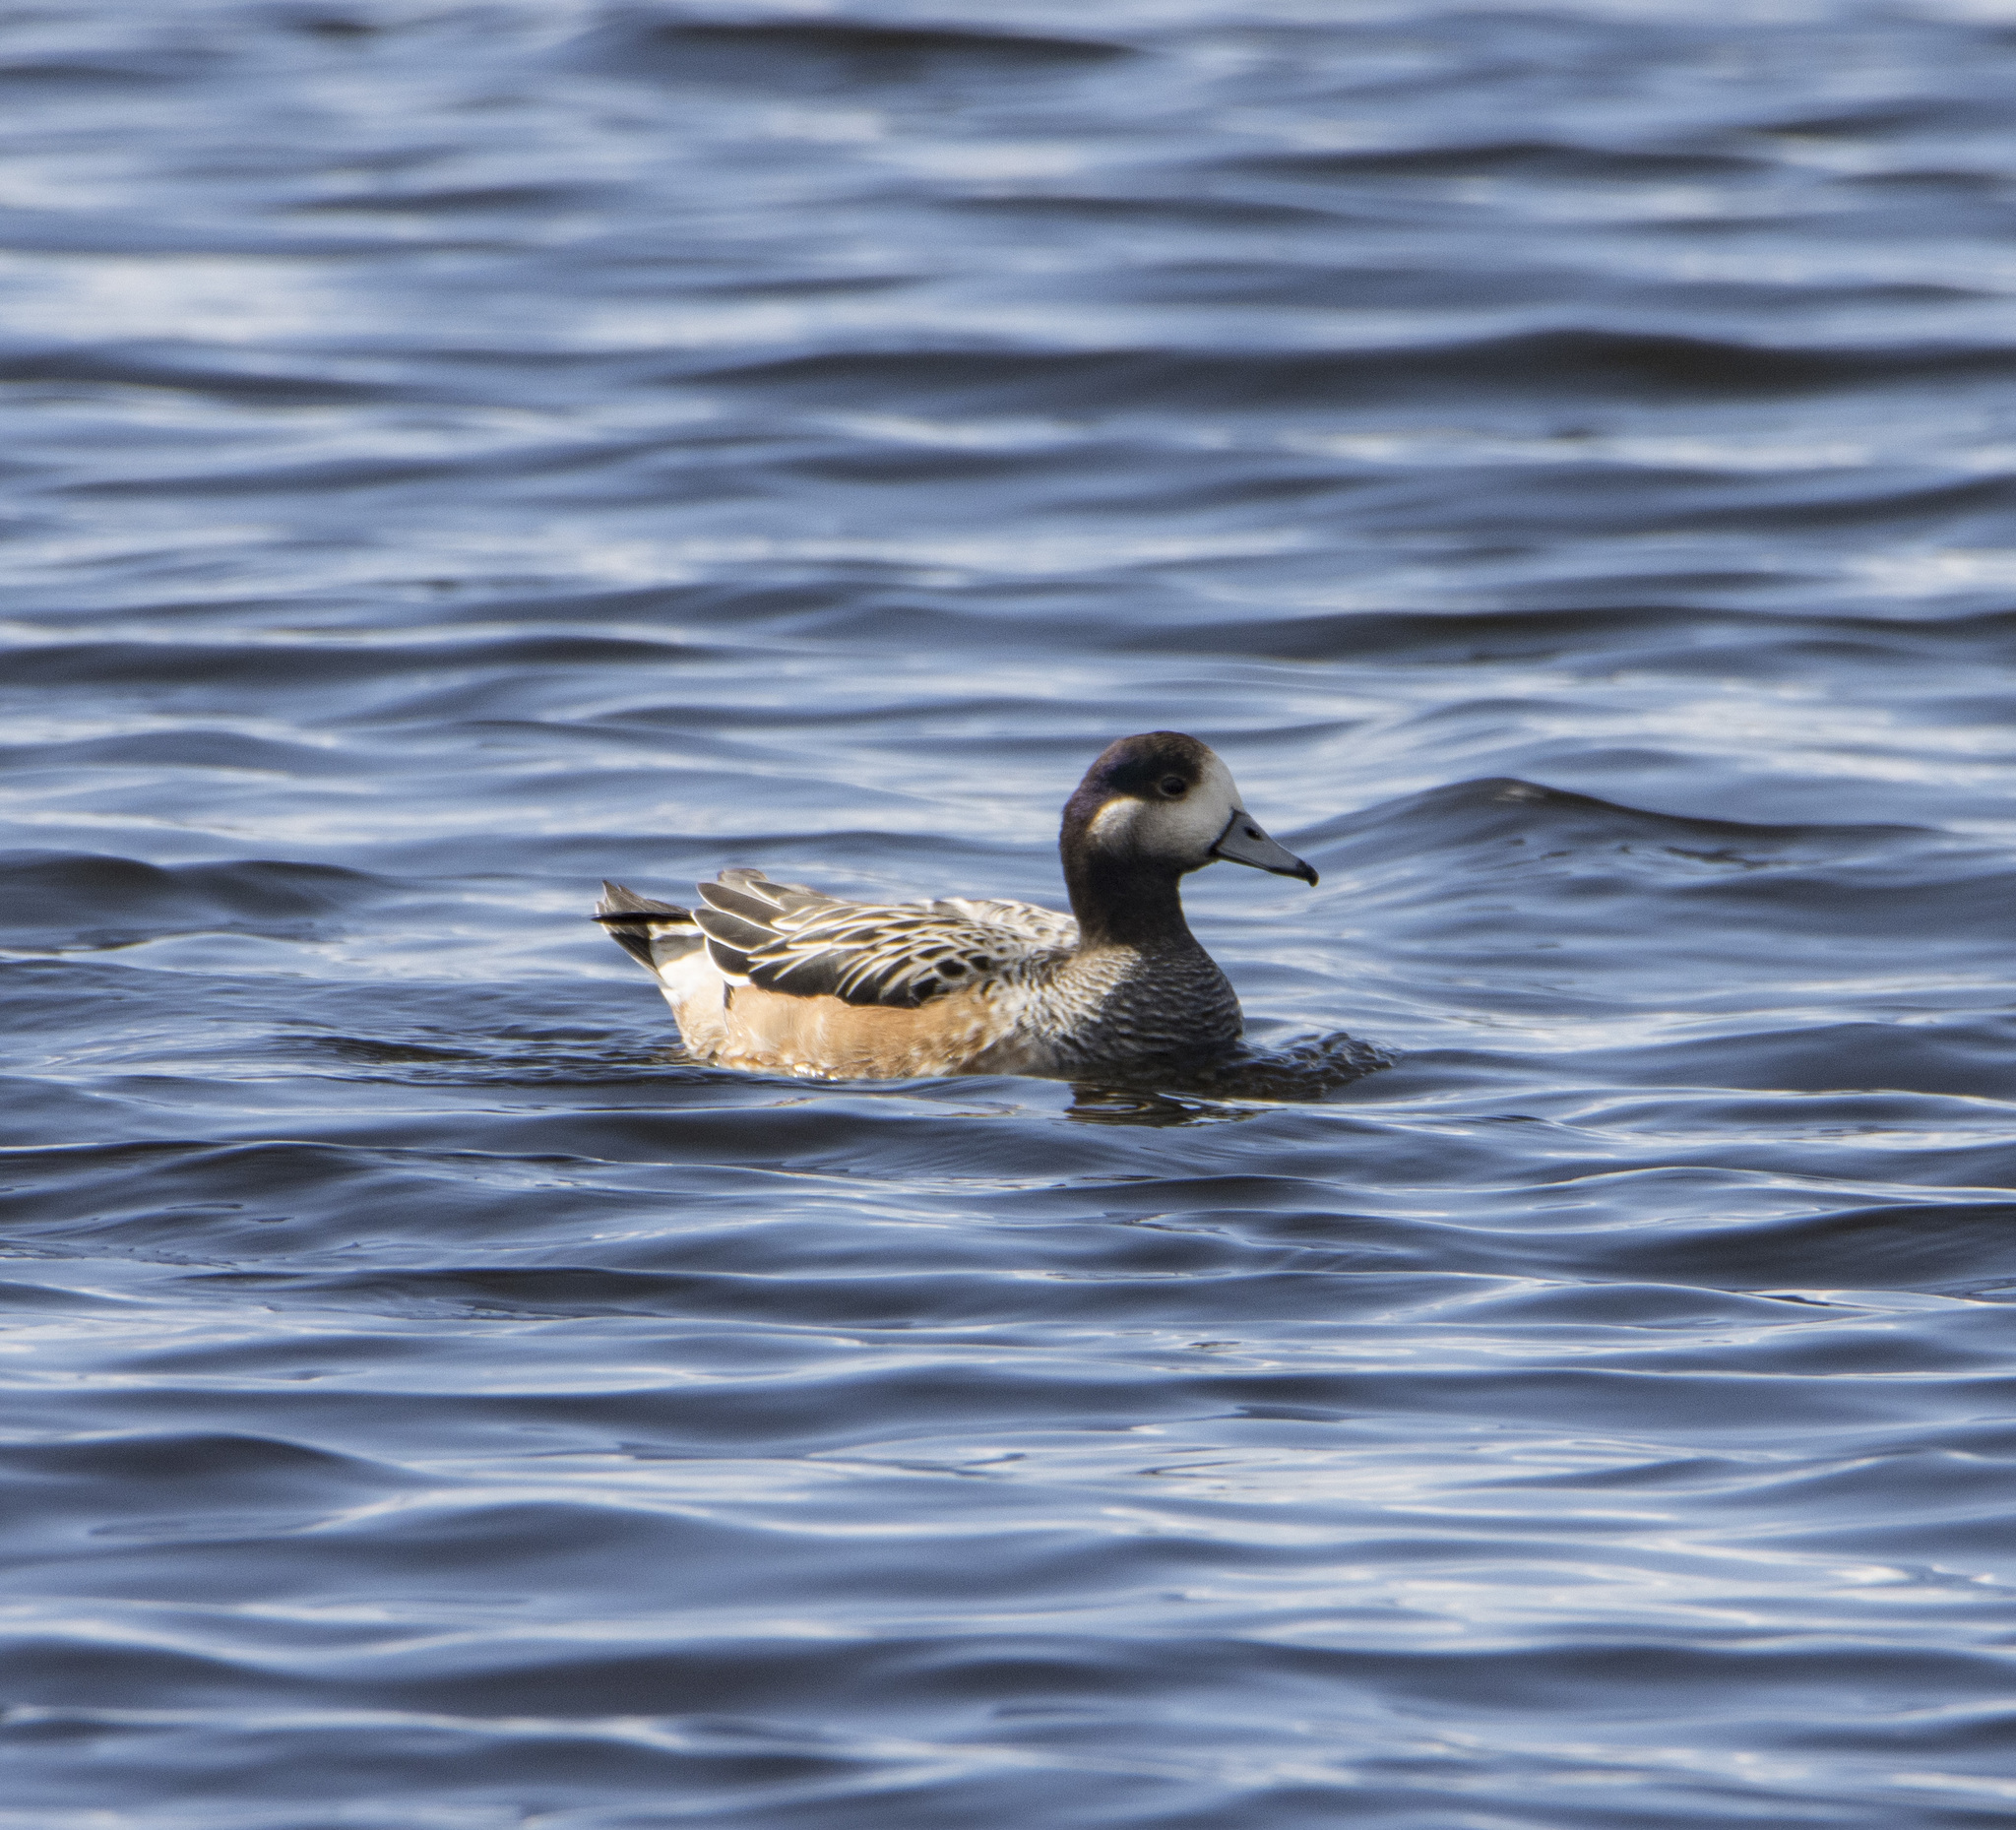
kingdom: Animalia
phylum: Chordata
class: Aves
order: Anseriformes
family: Anatidae
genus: Mareca
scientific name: Mareca sibilatrix
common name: Chiloe wigeon
